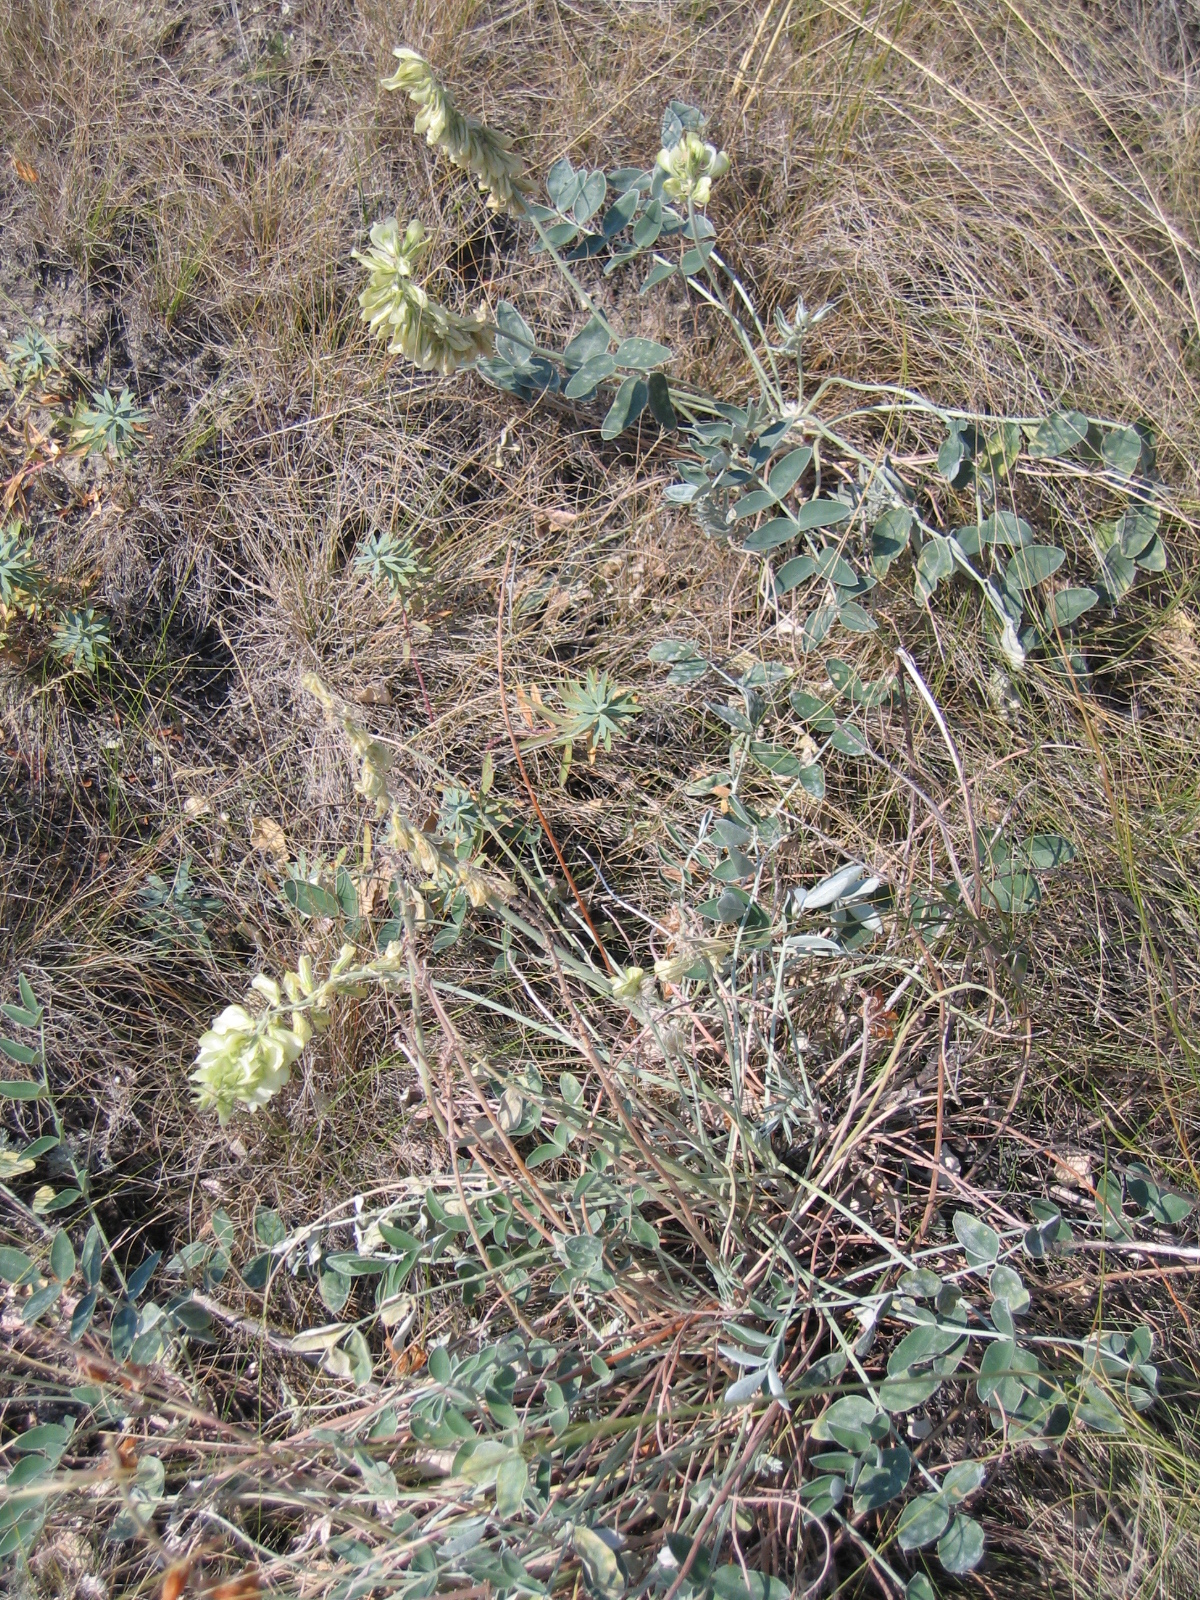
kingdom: Plantae
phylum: Tracheophyta
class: Magnoliopsida
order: Fabales
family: Fabaceae
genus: Hedysarum
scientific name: Hedysarum grandiflorum
